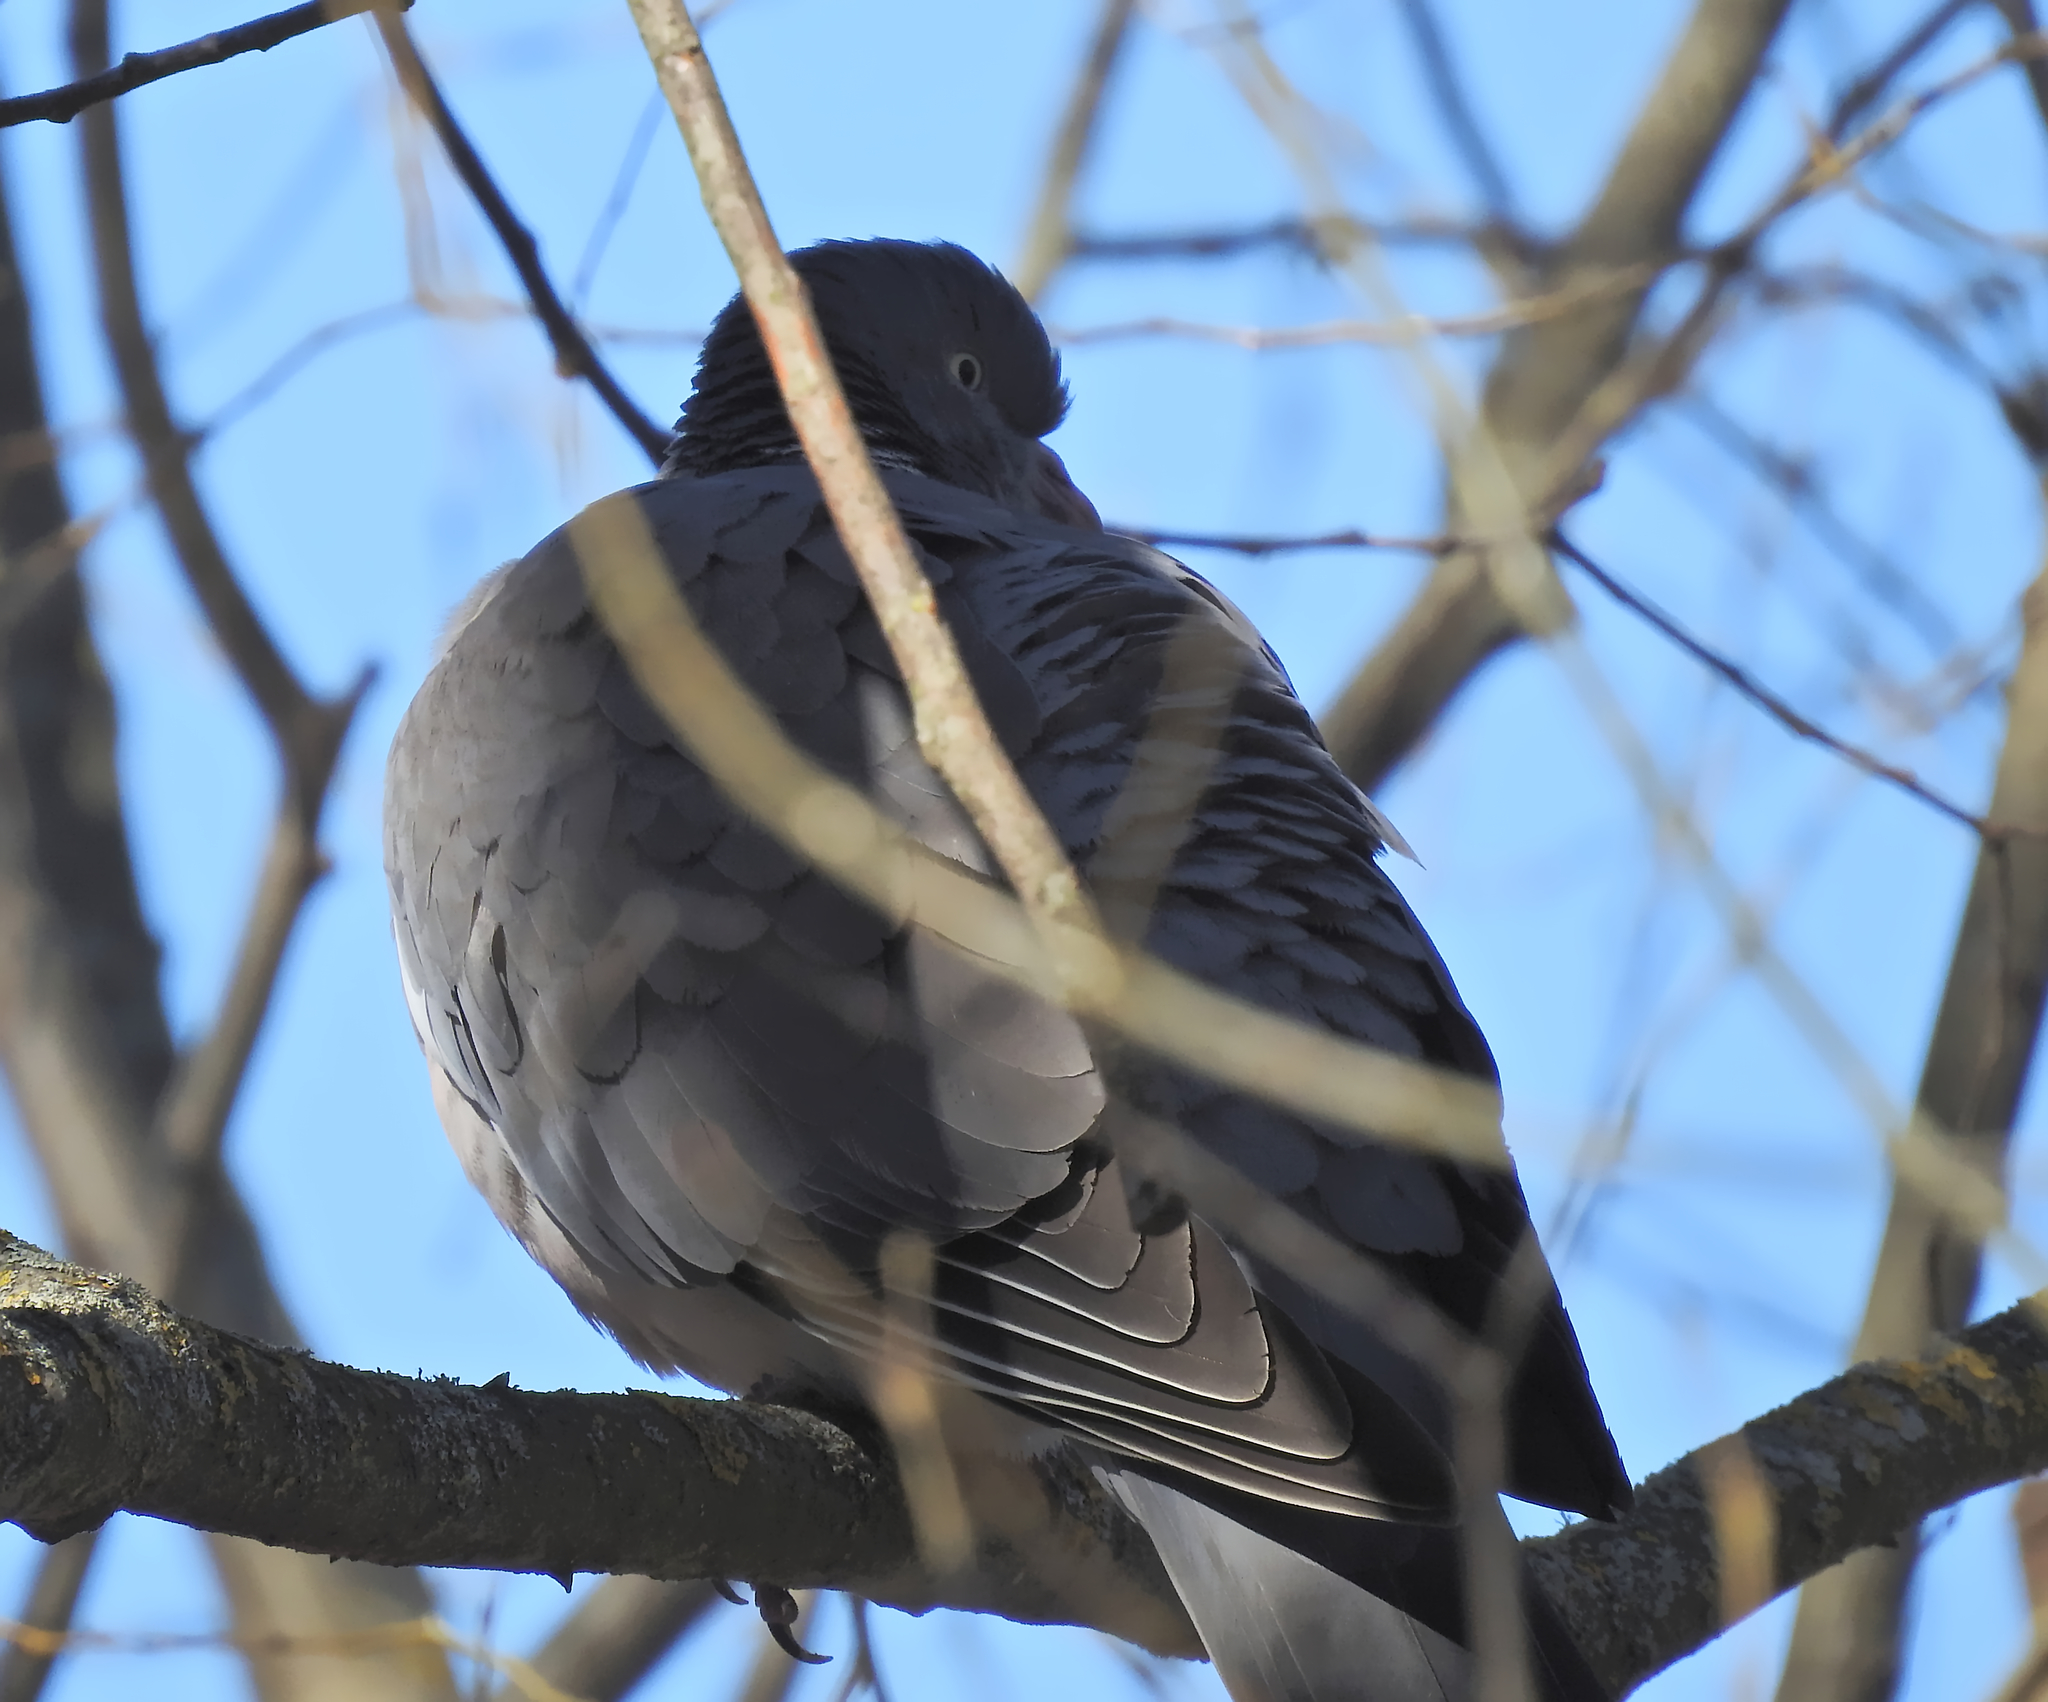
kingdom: Animalia
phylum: Chordata
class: Aves
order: Columbiformes
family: Columbidae
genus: Columba
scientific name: Columba palumbus
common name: Common wood pigeon
